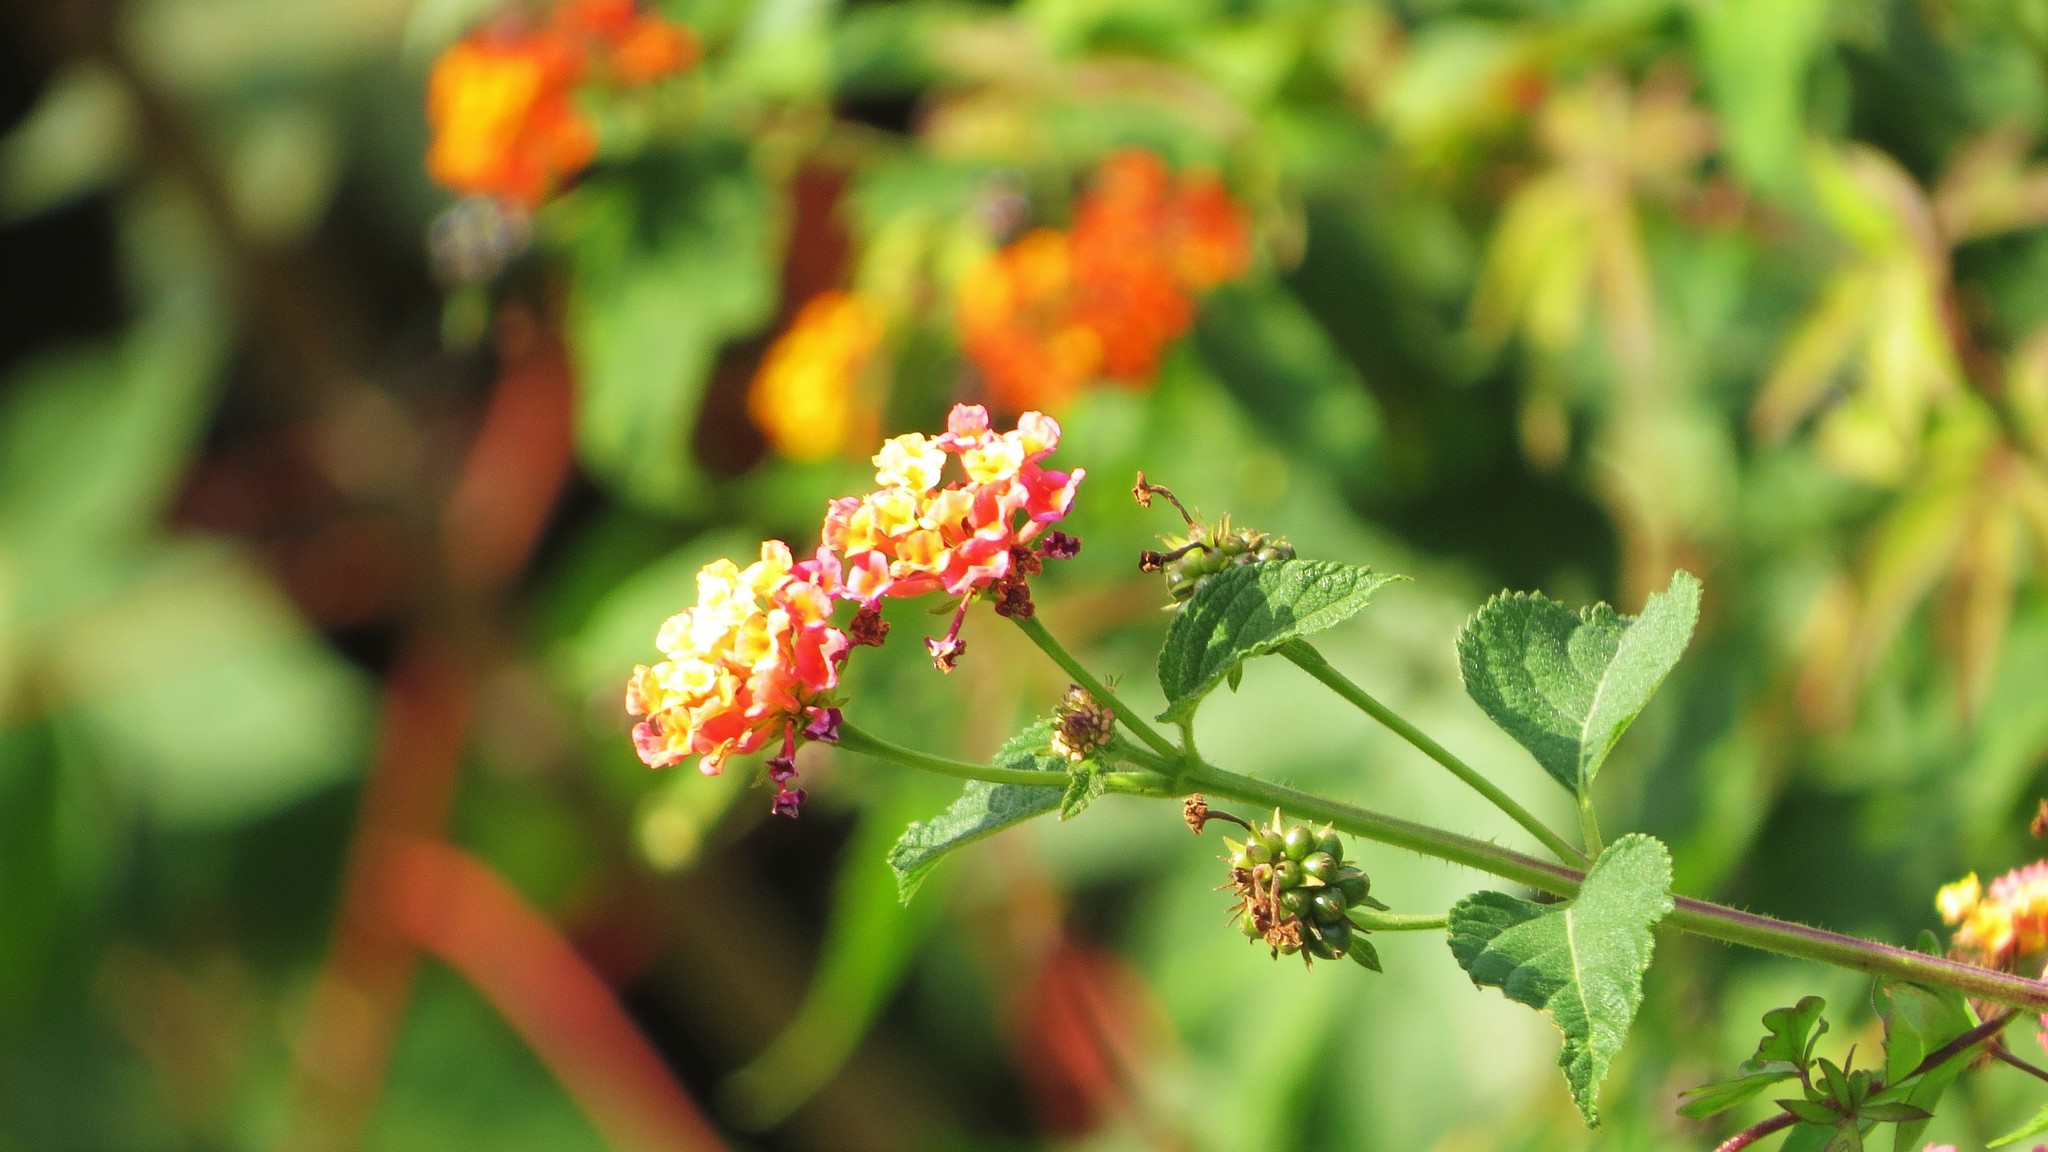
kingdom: Plantae
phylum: Tracheophyta
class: Magnoliopsida
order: Lamiales
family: Verbenaceae
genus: Lantana
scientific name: Lantana camara
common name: Lantana
